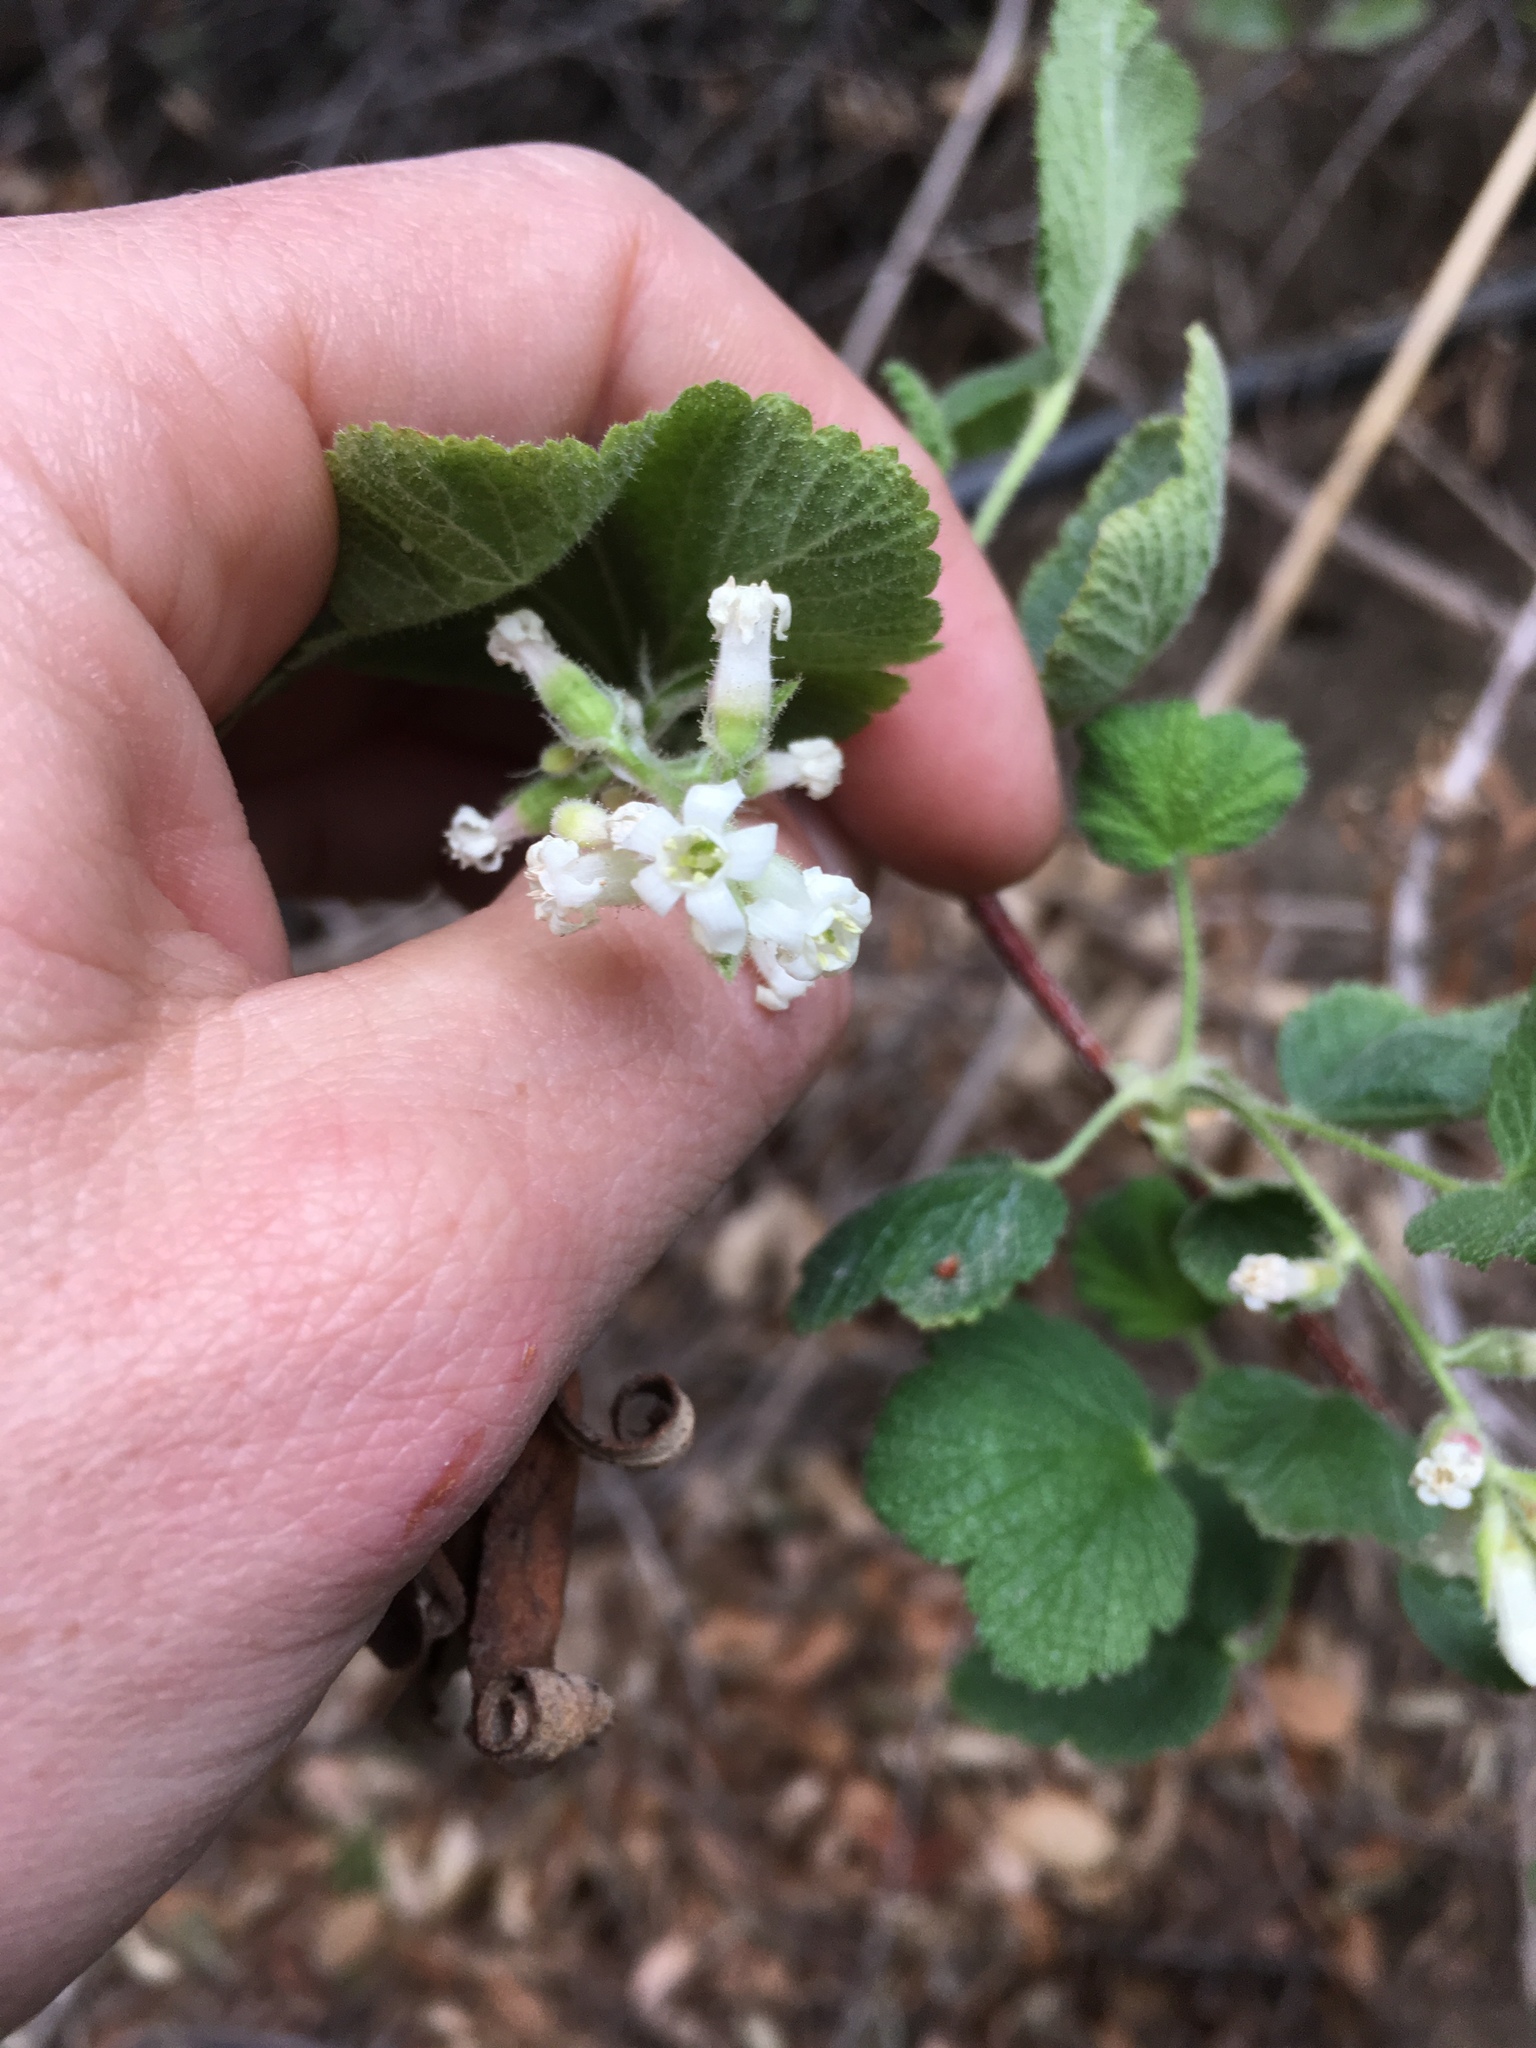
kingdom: Plantae
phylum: Tracheophyta
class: Magnoliopsida
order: Saxifragales
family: Grossulariaceae
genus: Ribes
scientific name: Ribes indecorum
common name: White-flower currant
